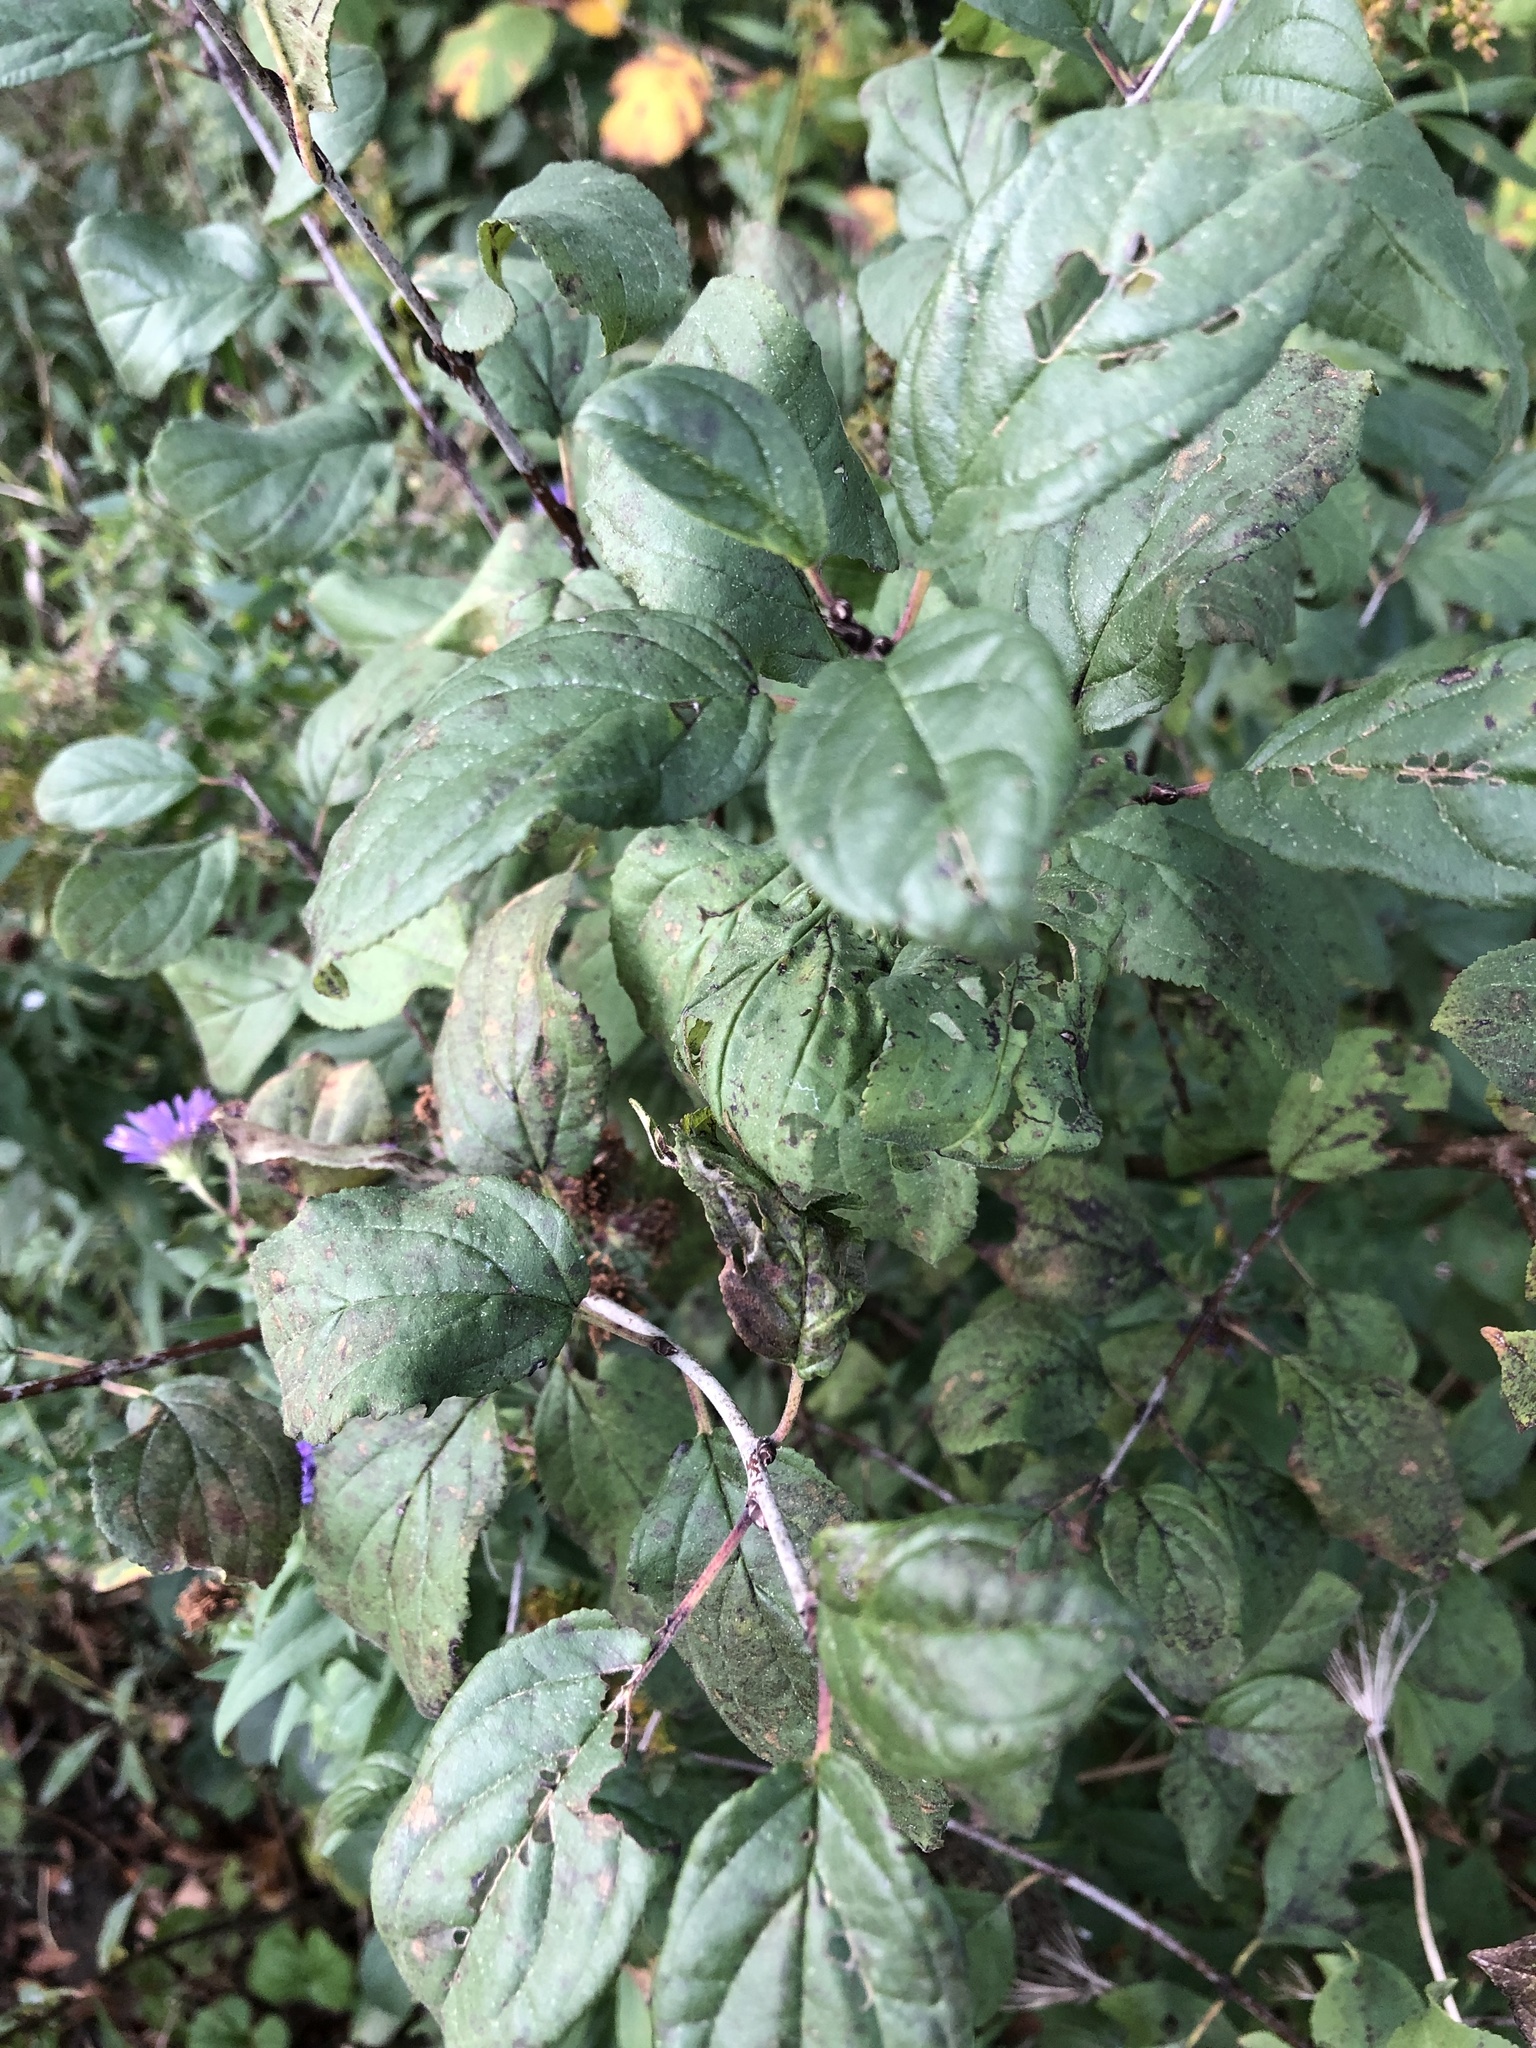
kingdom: Plantae
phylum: Tracheophyta
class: Magnoliopsida
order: Rosales
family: Rhamnaceae
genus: Rhamnus
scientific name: Rhamnus cathartica
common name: Common buckthorn
